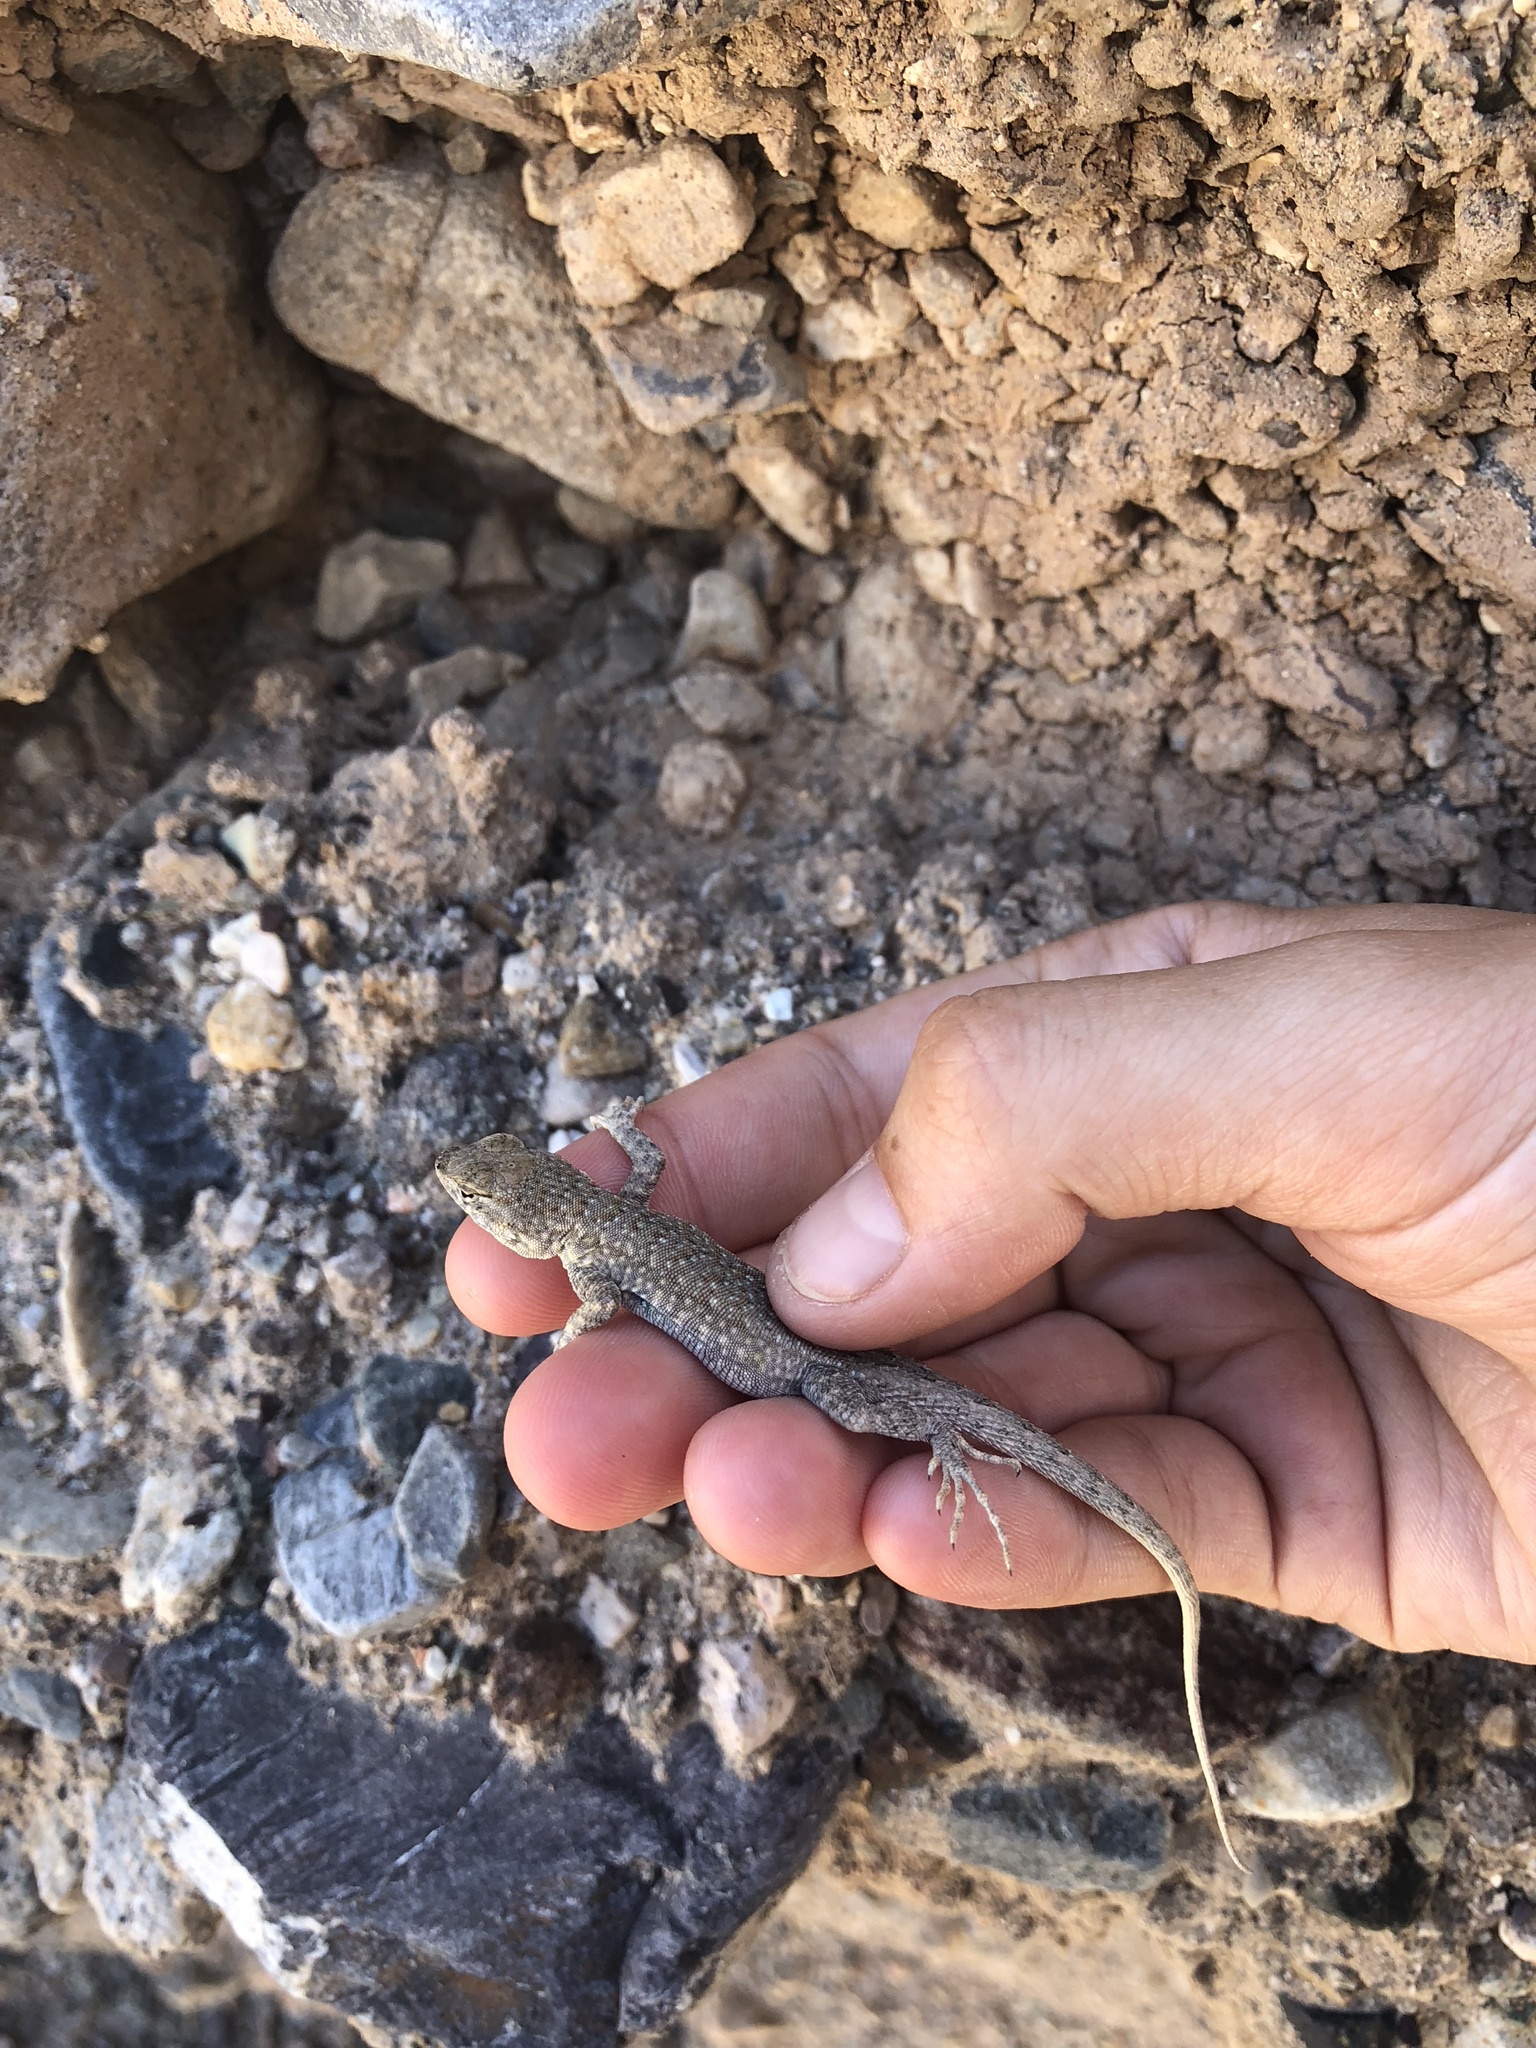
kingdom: Animalia
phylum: Chordata
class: Squamata
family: Phrynosomatidae
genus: Uta
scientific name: Uta stansburiana
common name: Side-blotched lizard
